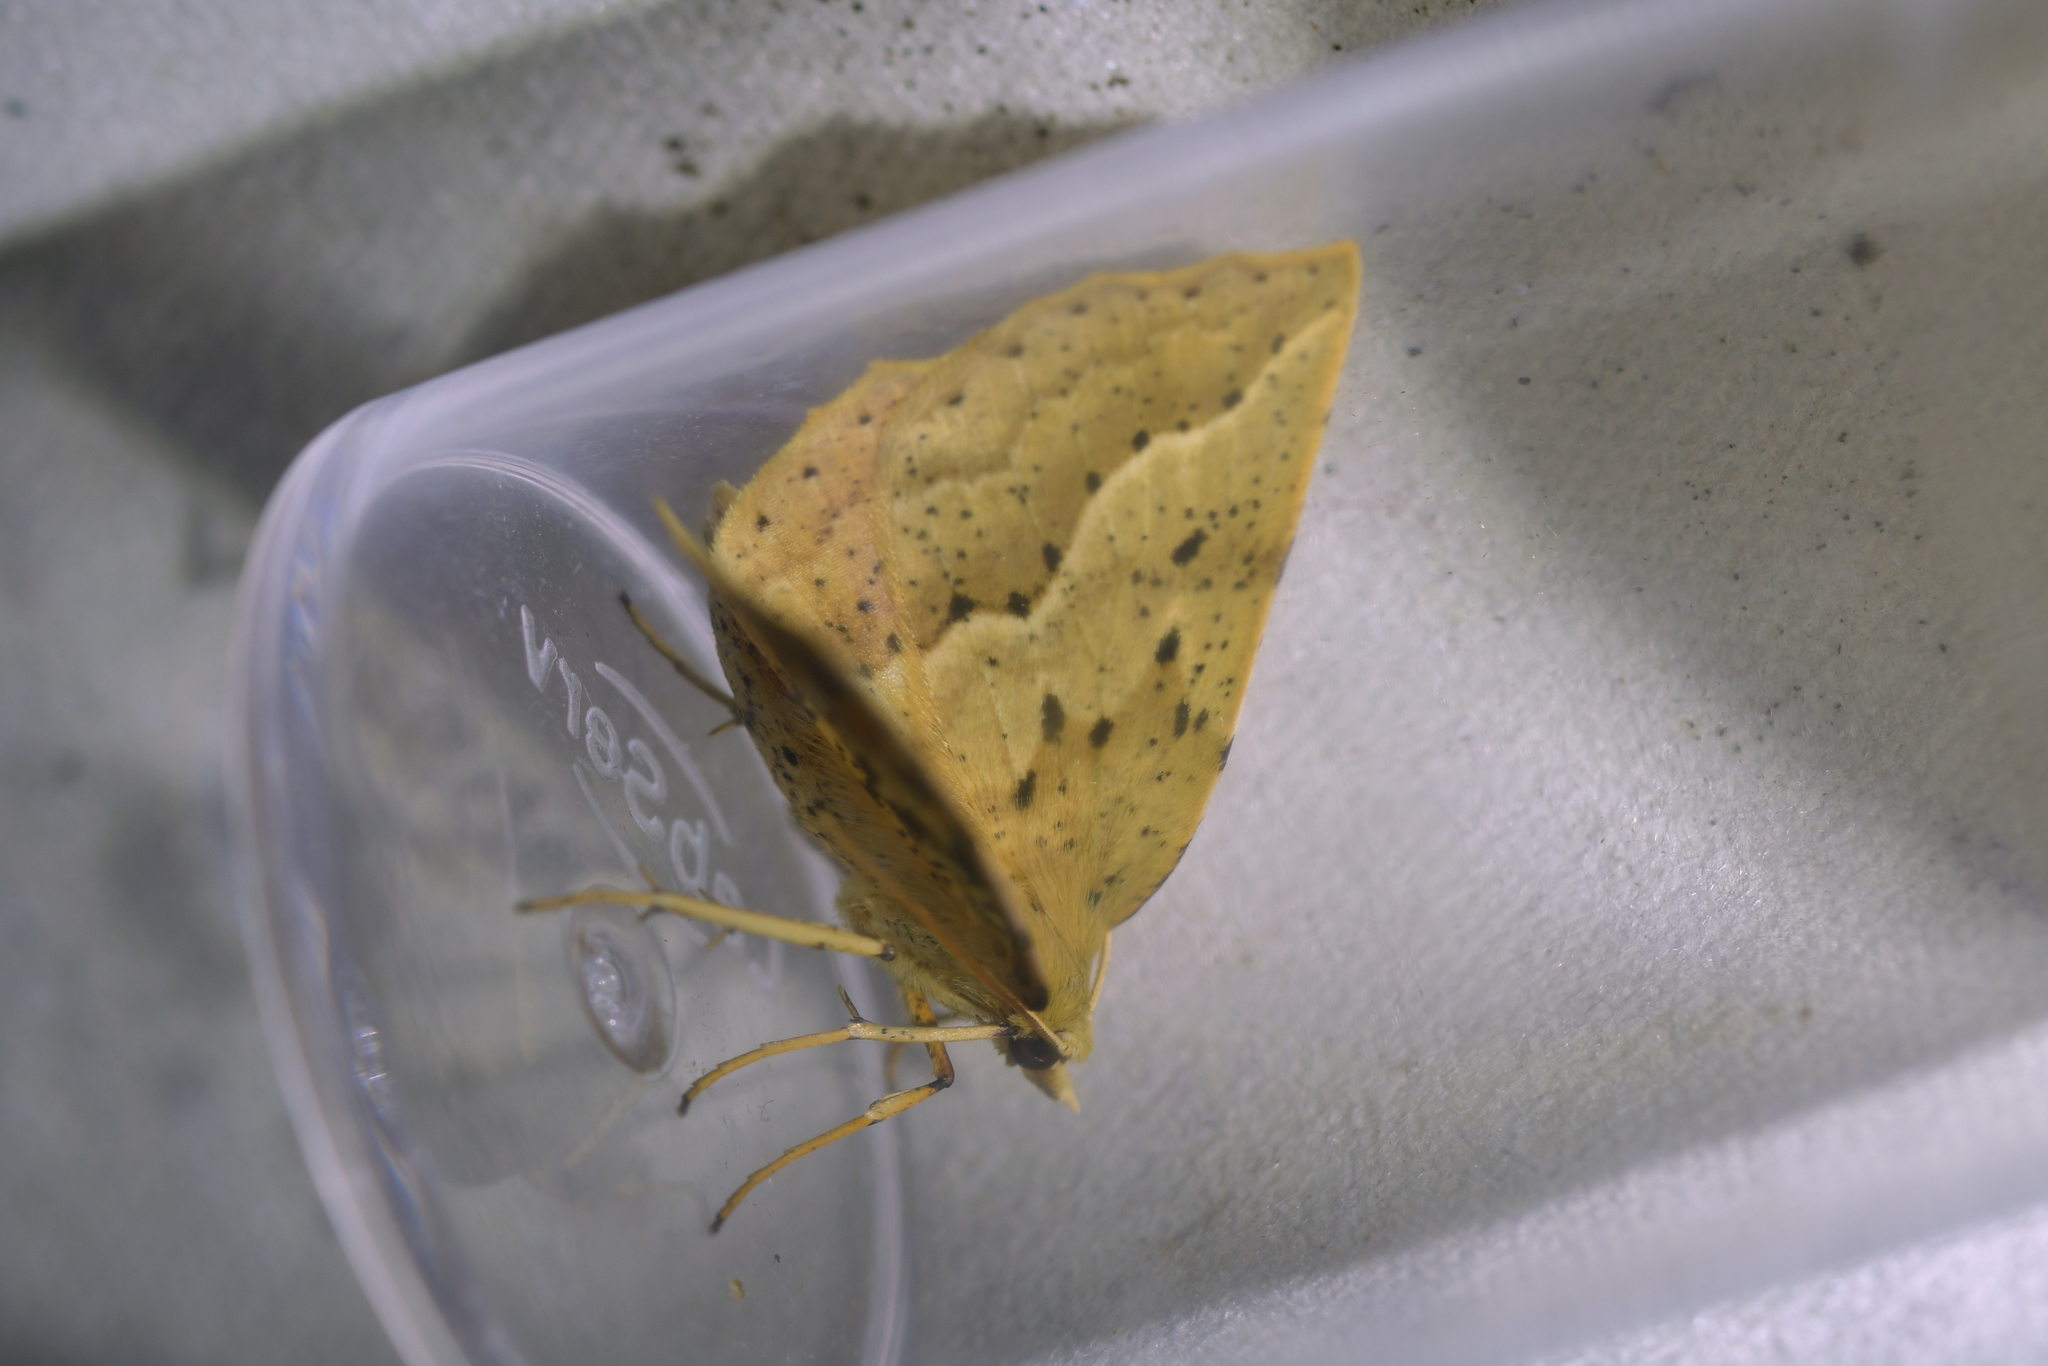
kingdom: Animalia
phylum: Arthropoda
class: Insecta
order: Lepidoptera
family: Geometridae
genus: Ischalis
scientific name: Ischalis variabilis
